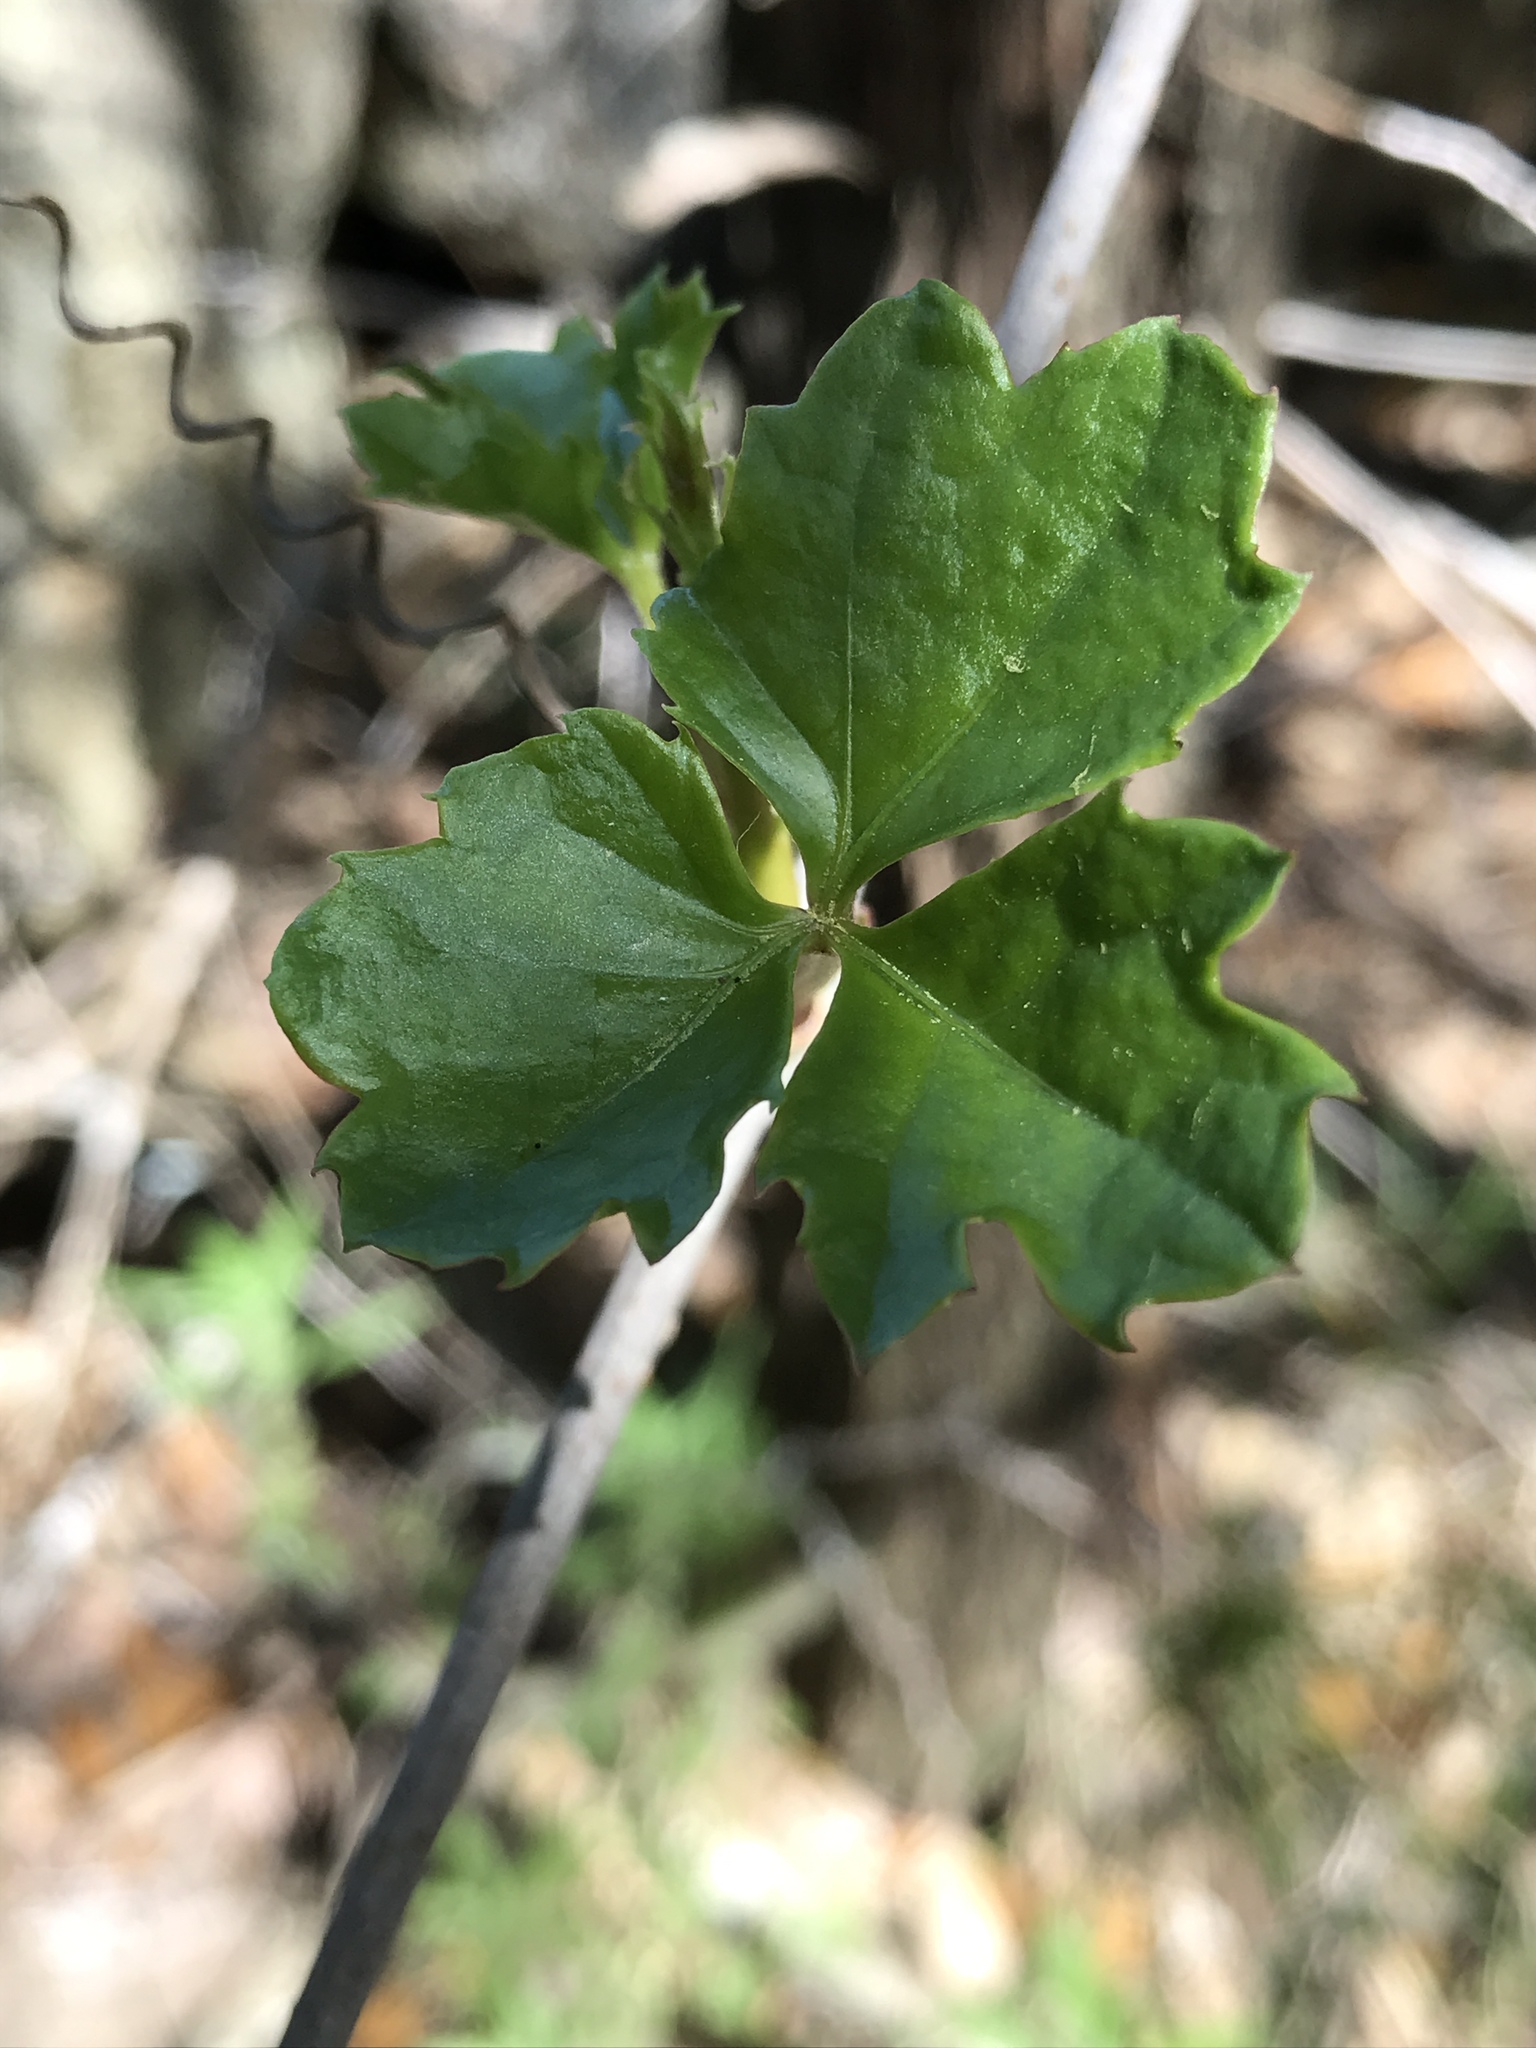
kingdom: Plantae
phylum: Tracheophyta
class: Magnoliopsida
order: Vitales
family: Vitaceae
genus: Cissus
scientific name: Cissus trifoliata
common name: Vine-sorrel
